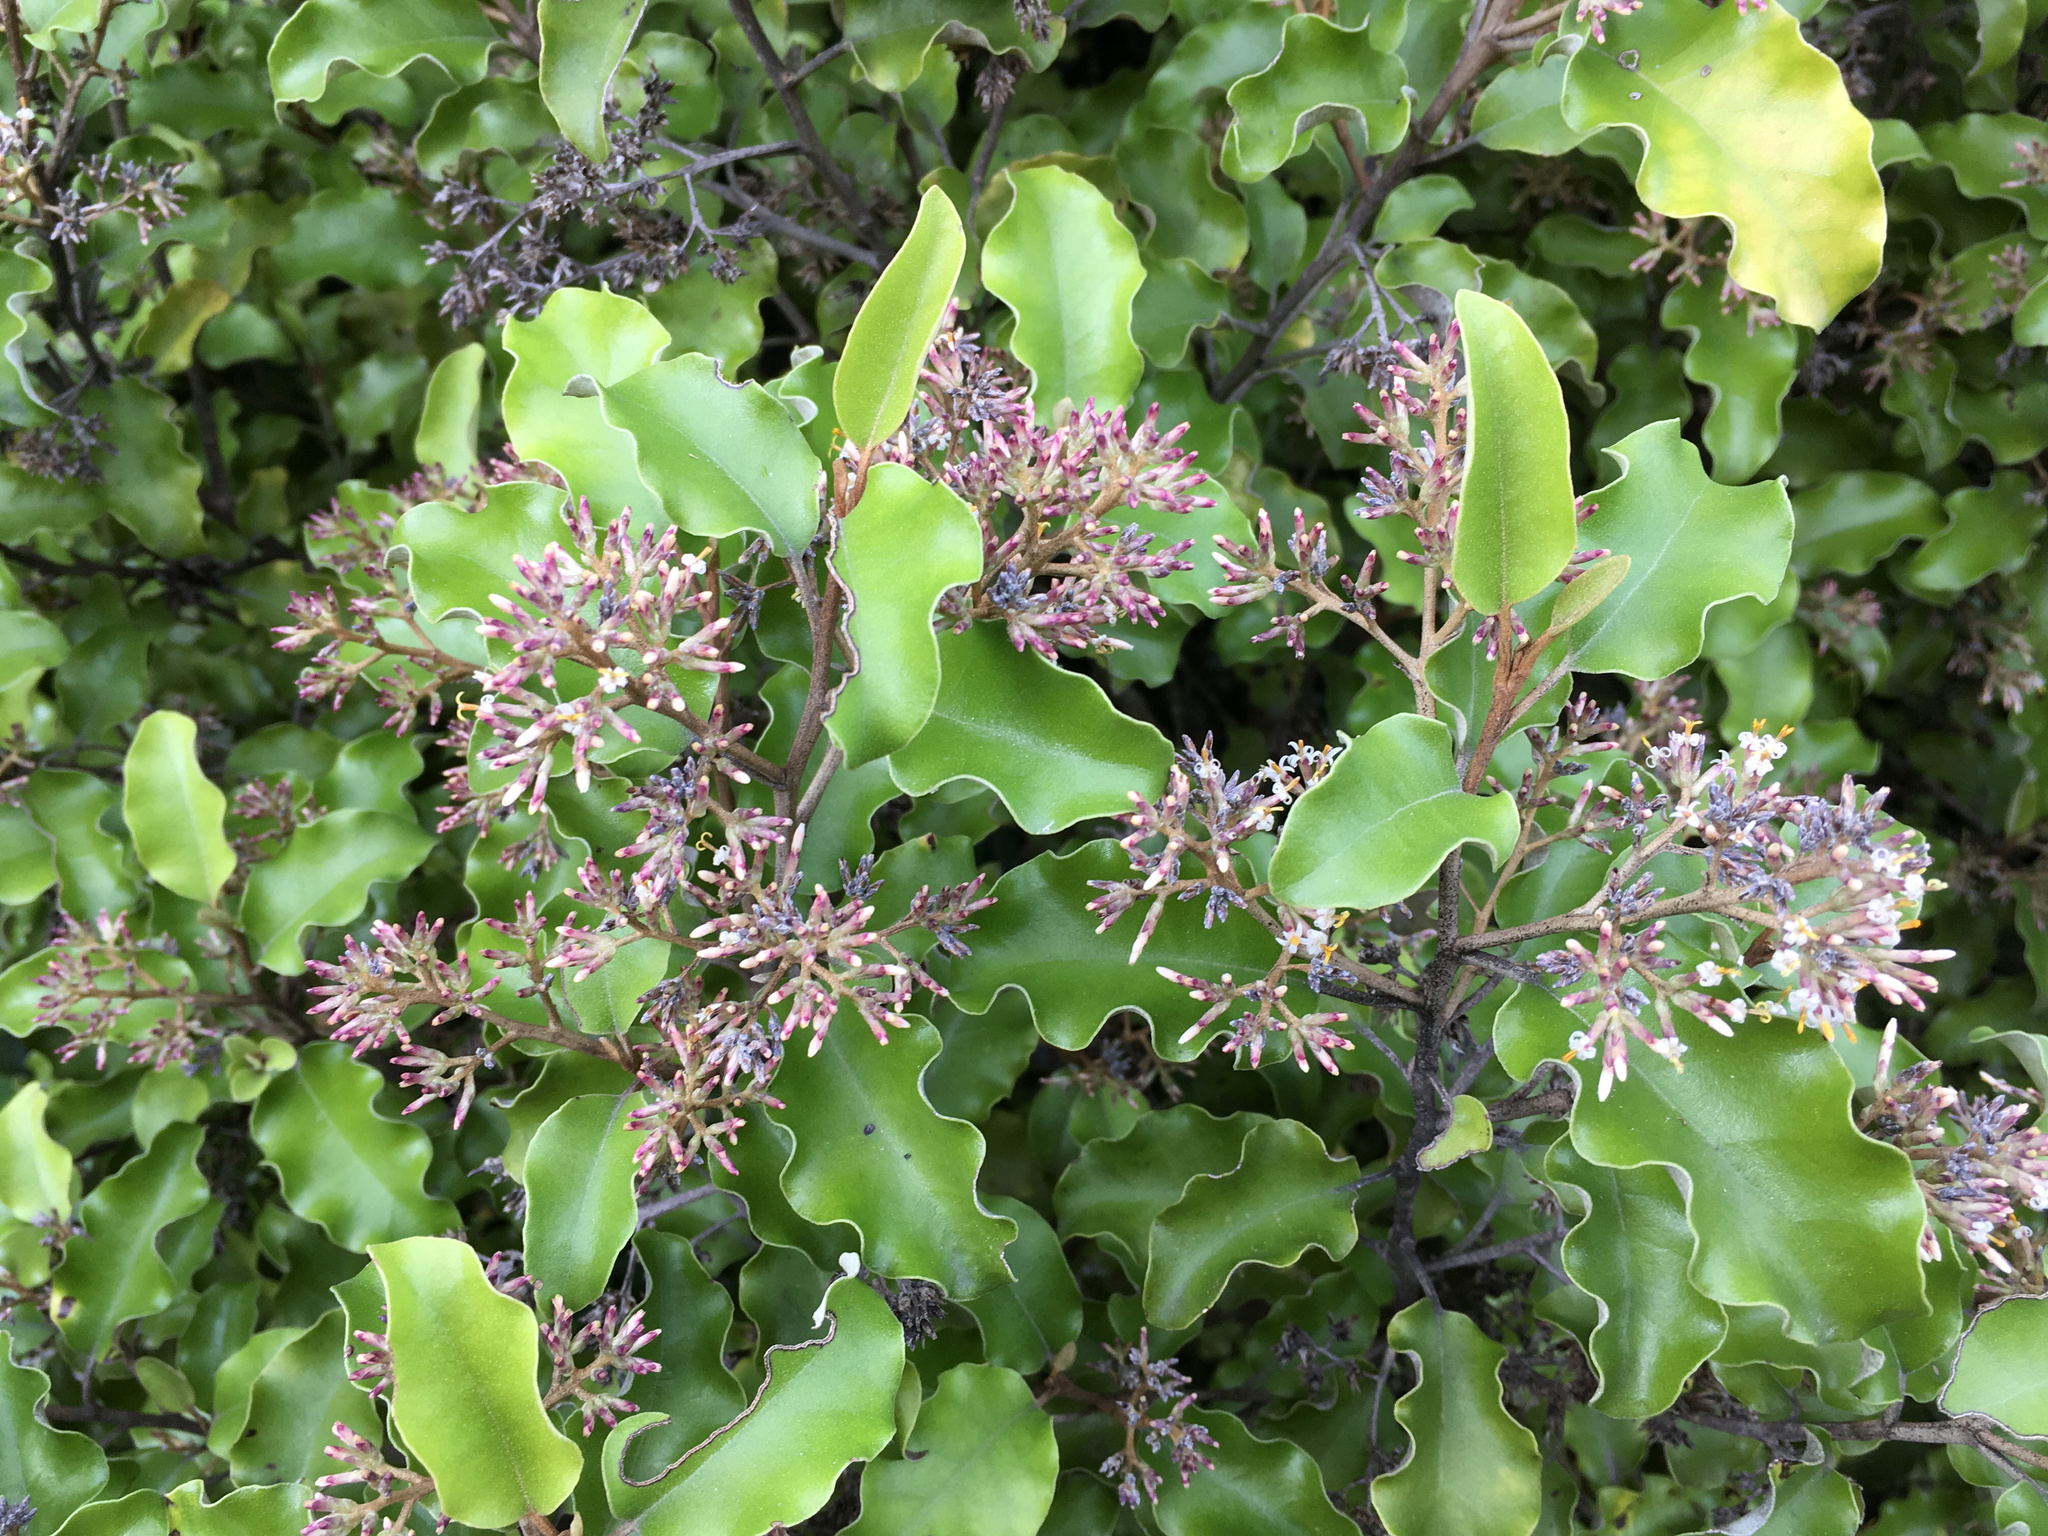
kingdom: Plantae
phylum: Tracheophyta
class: Magnoliopsida
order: Asterales
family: Asteraceae
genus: Olearia
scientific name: Olearia paniculata
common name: Akiraho
